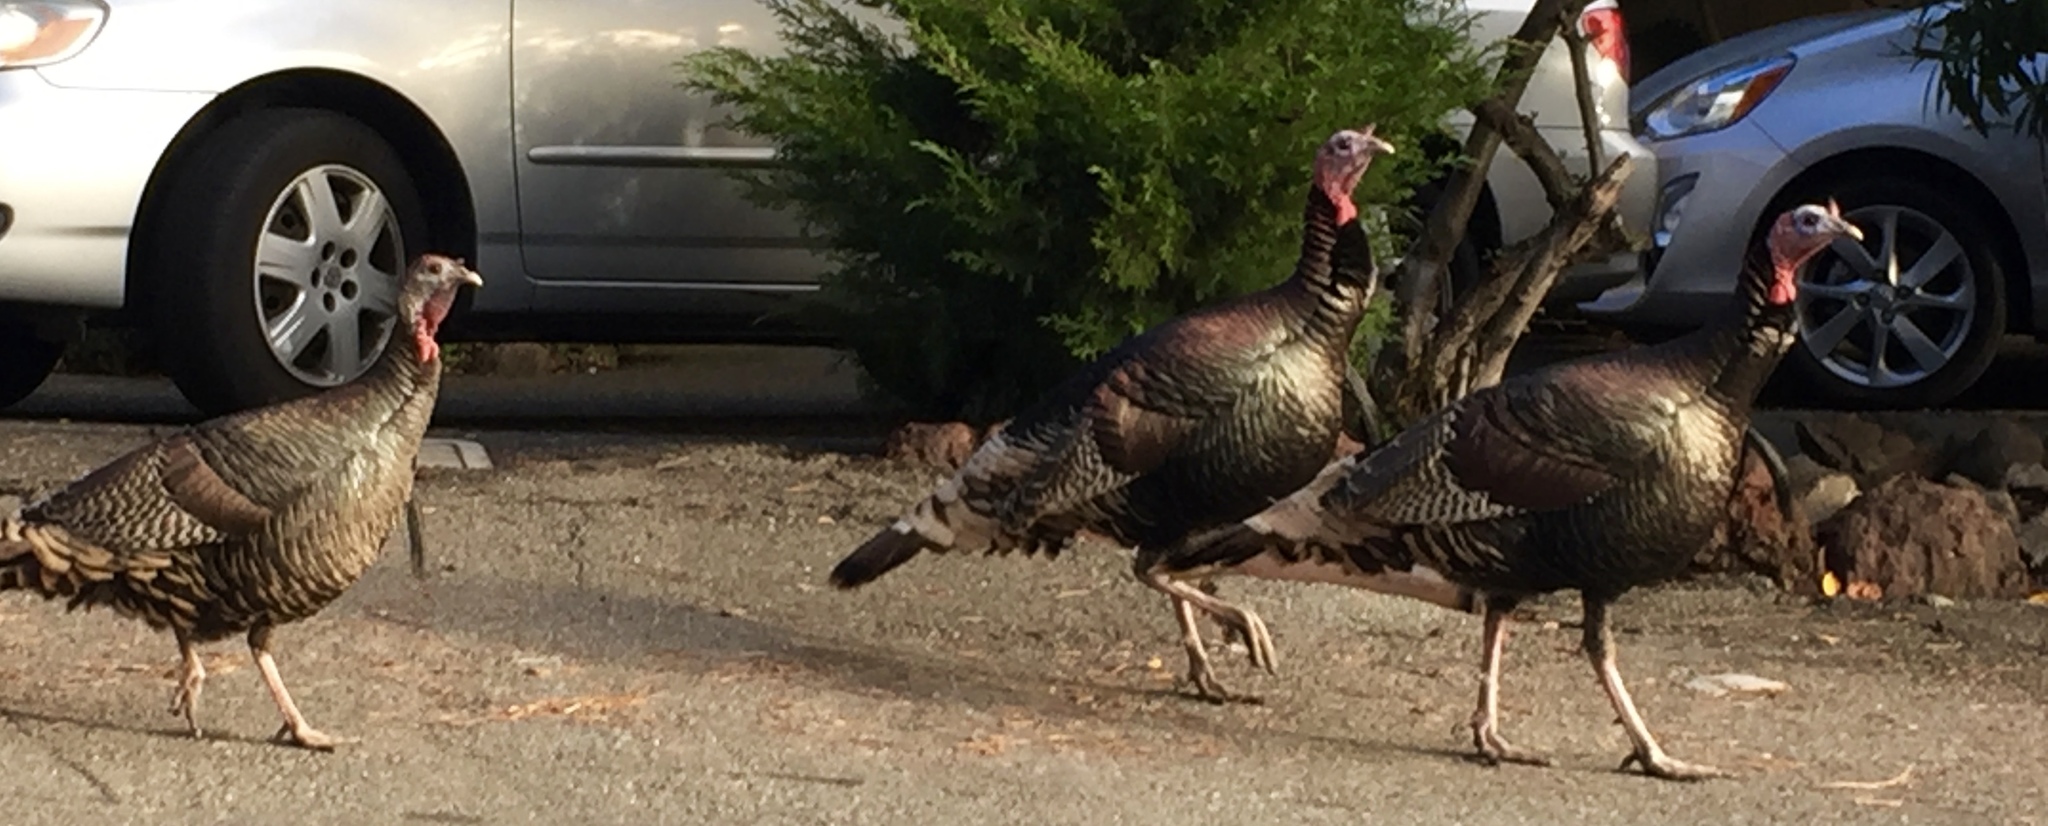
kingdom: Animalia
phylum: Chordata
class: Aves
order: Galliformes
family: Phasianidae
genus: Meleagris
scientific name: Meleagris gallopavo
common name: Wild turkey
